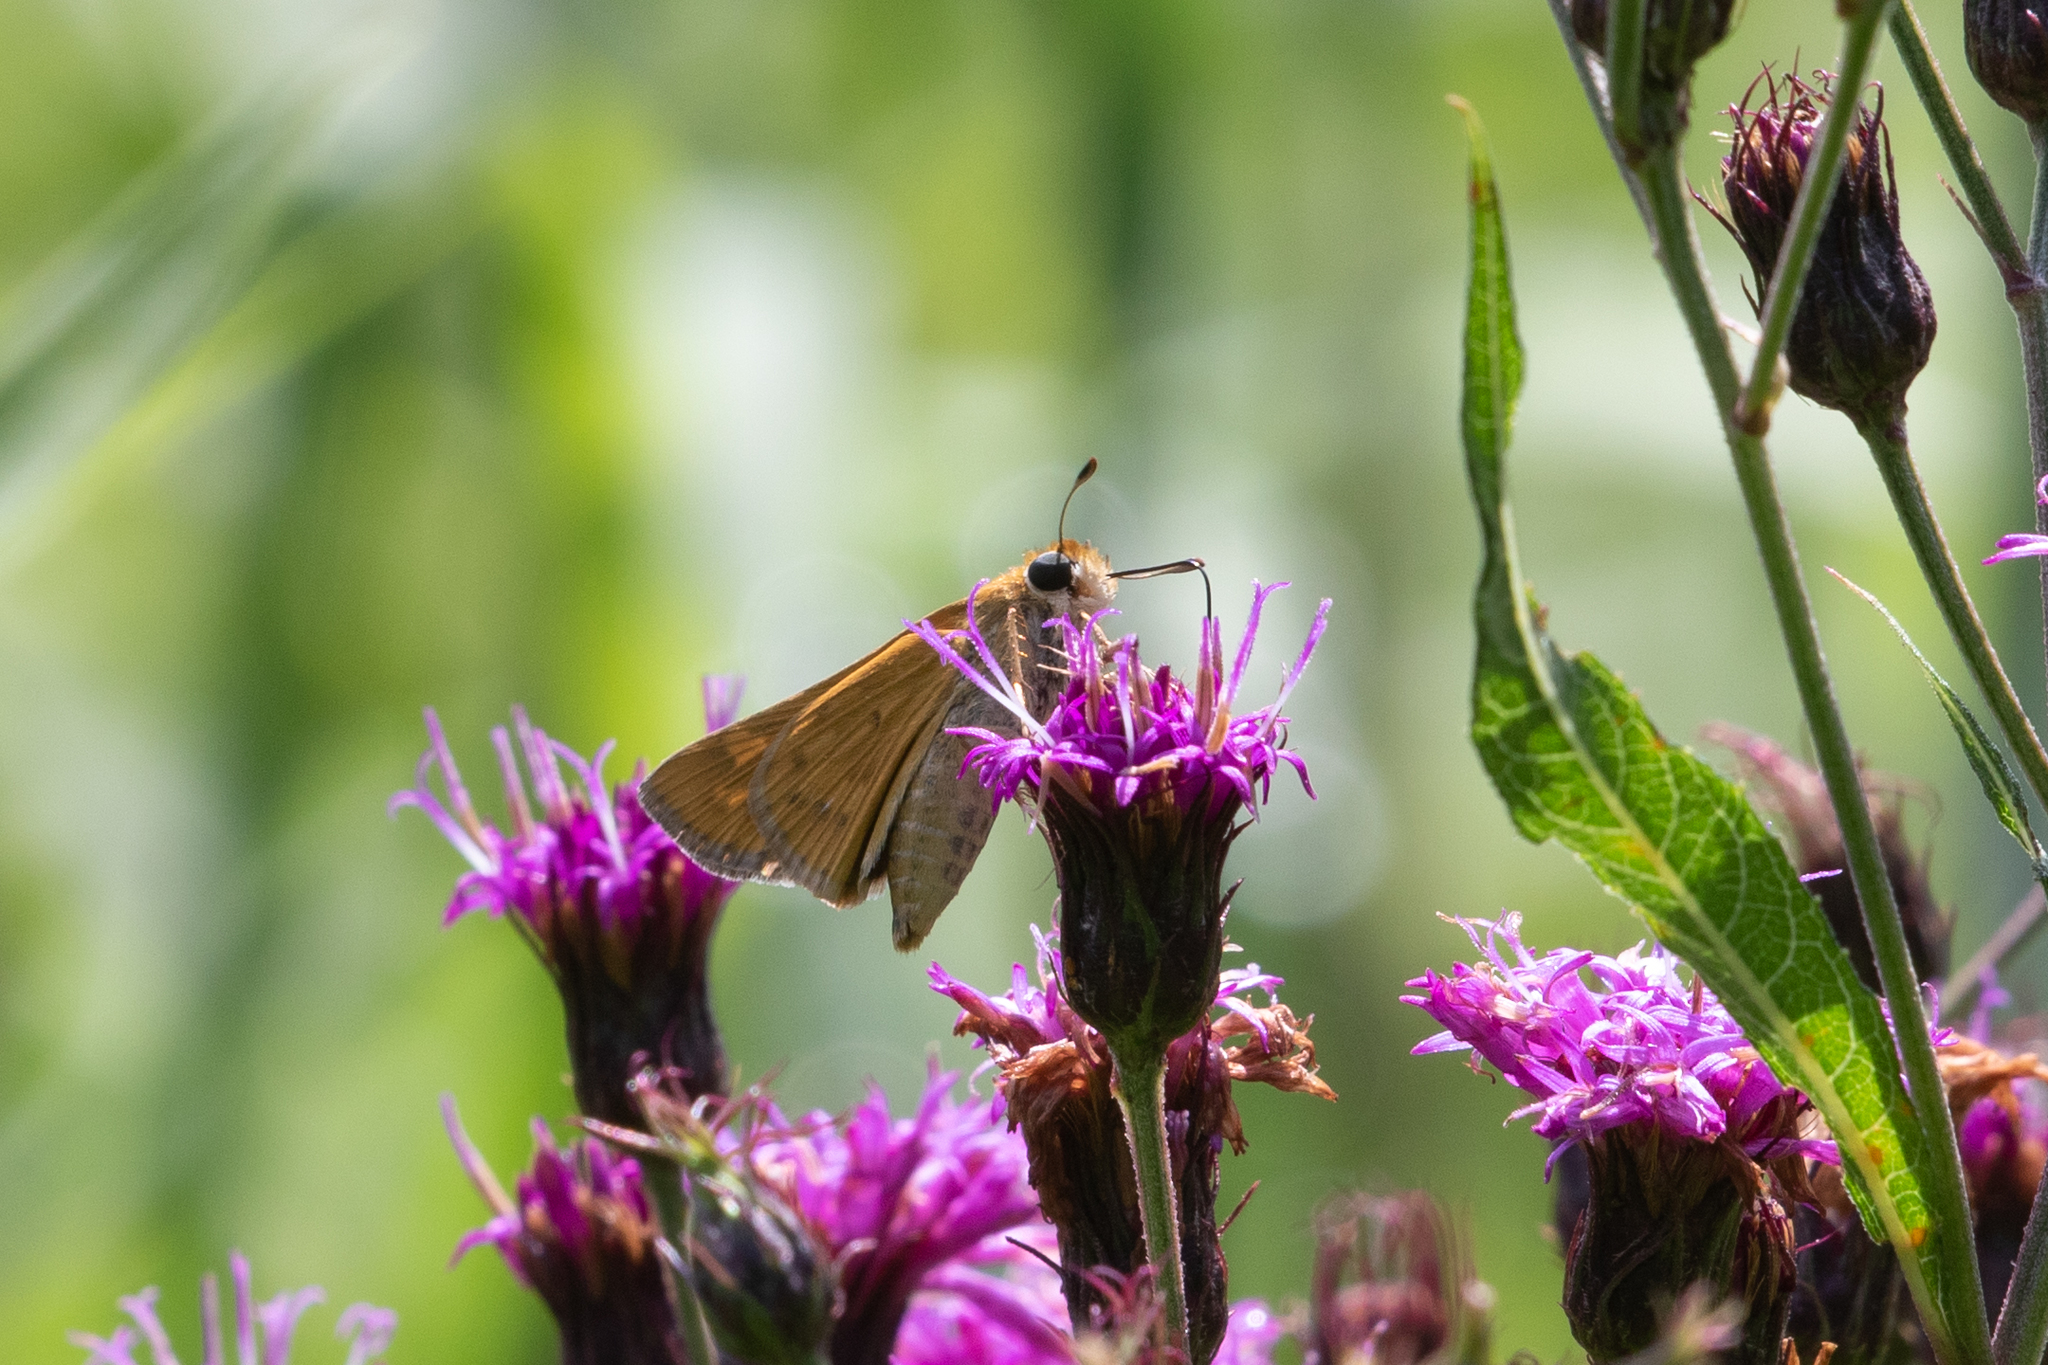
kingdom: Animalia
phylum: Arthropoda
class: Insecta
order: Lepidoptera
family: Hesperiidae
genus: Hylephila
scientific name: Hylephila phyleus
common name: Fiery skipper
